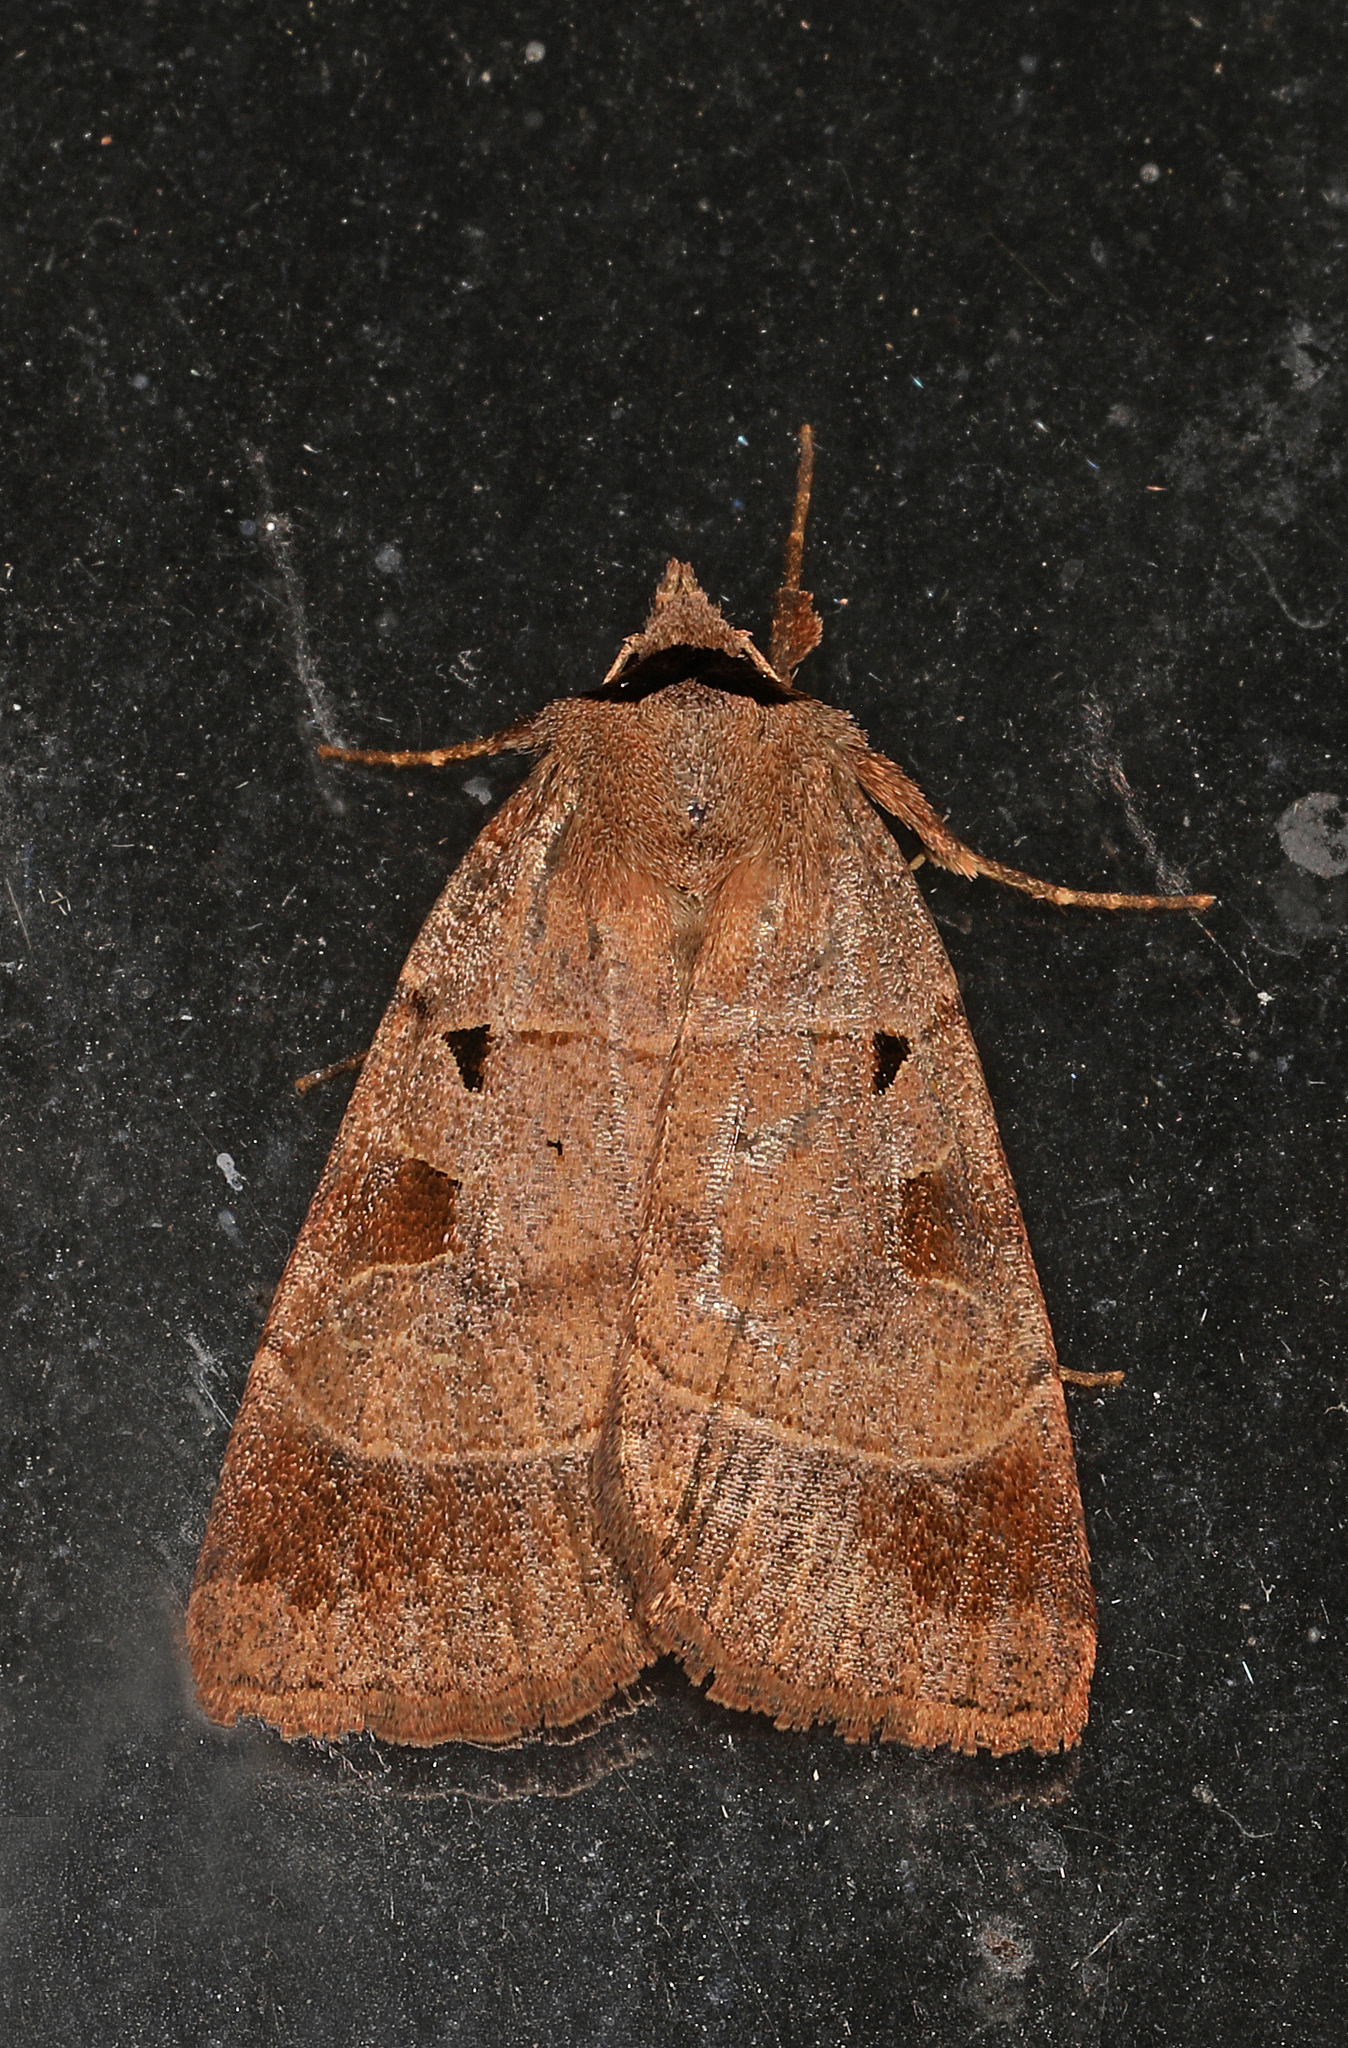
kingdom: Animalia
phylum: Arthropoda
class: Insecta
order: Lepidoptera
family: Noctuidae
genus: Agnorisma
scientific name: Agnorisma badinodis
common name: Pale-banded dart
